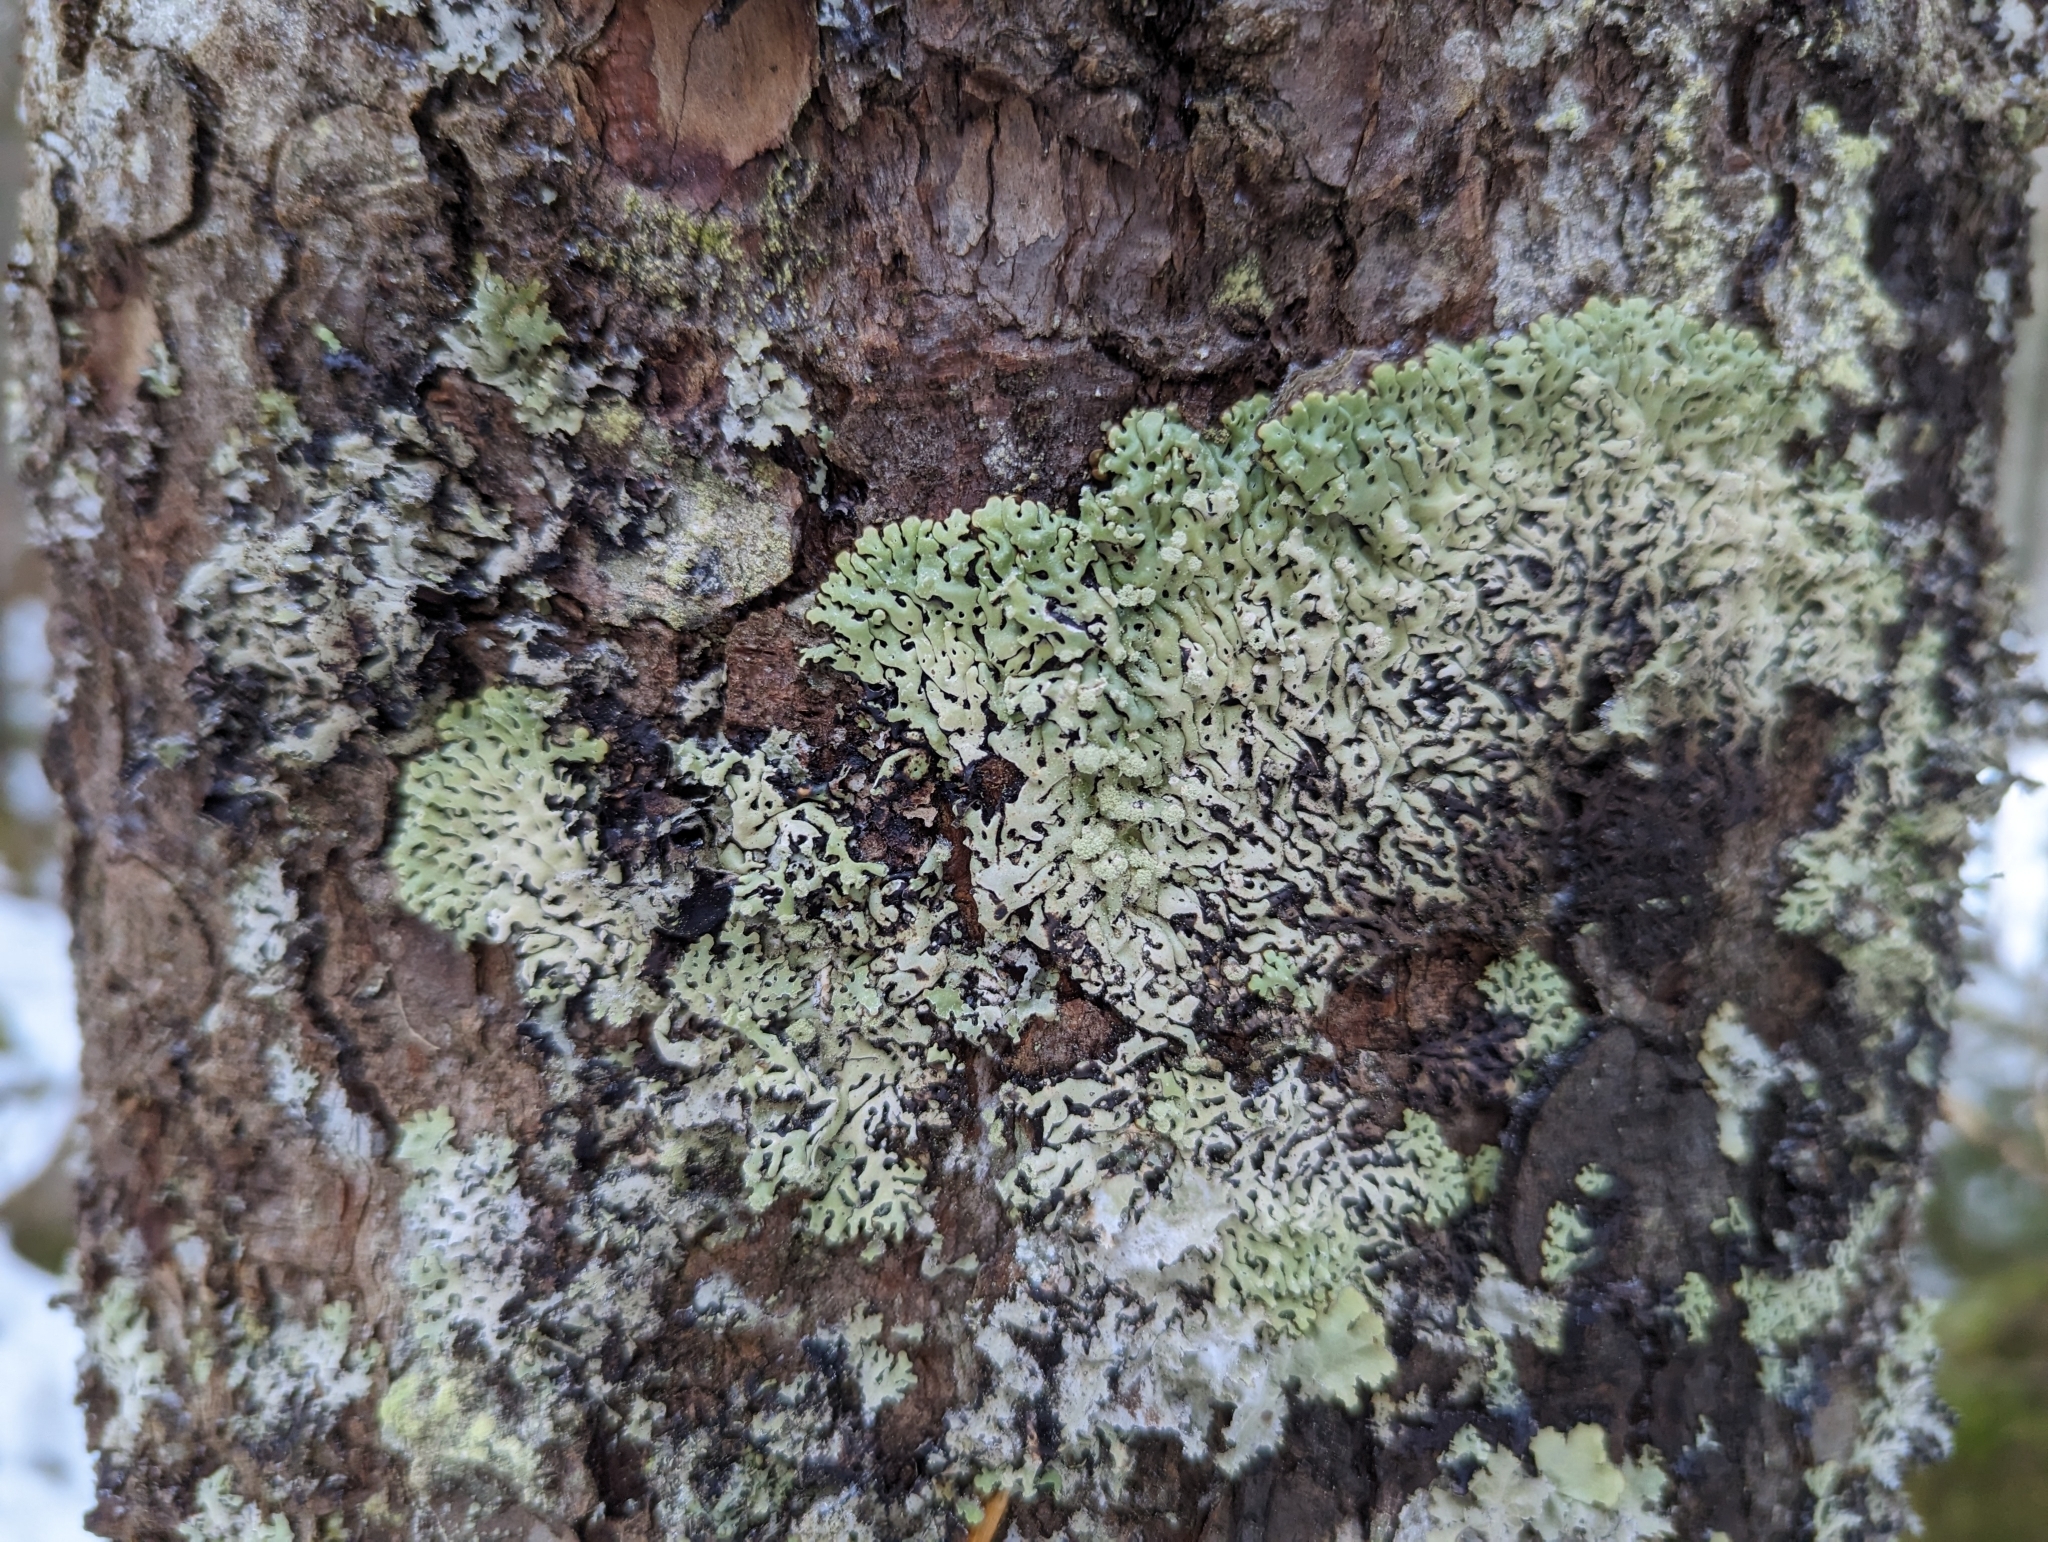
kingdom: Fungi
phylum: Ascomycota
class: Lecanoromycetes
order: Lecanorales
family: Parmeliaceae
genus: Menegazzia
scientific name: Menegazzia terebrata
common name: Magic treeflute lichen
